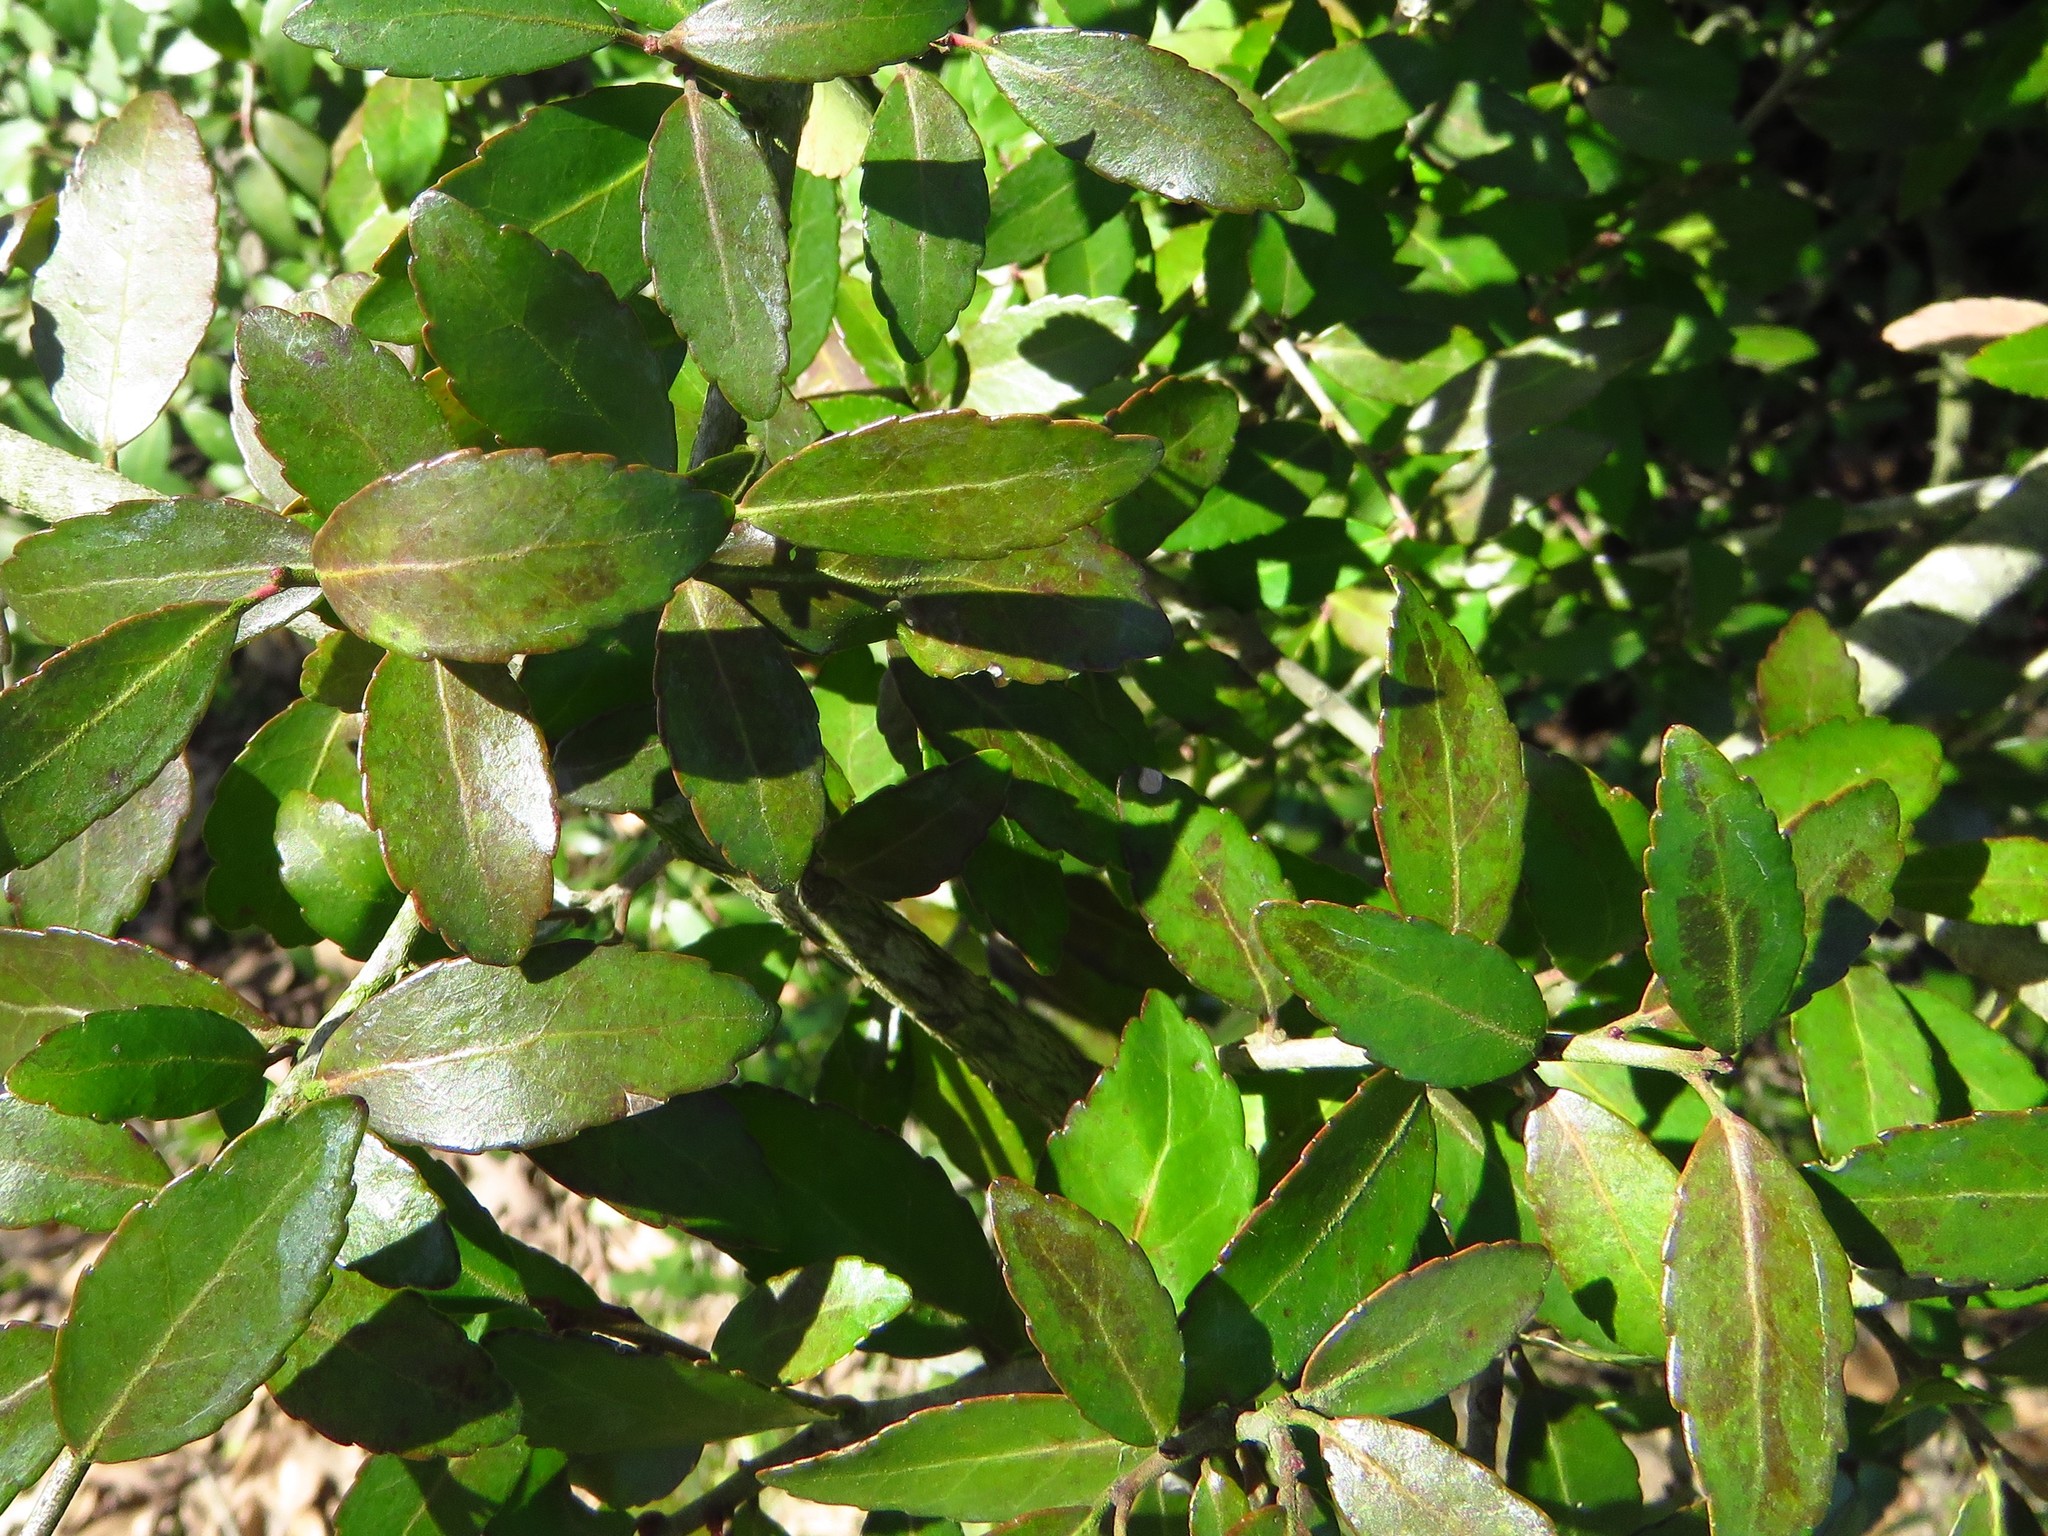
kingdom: Plantae
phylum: Tracheophyta
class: Magnoliopsida
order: Aquifoliales
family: Aquifoliaceae
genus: Ilex
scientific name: Ilex vomitoria
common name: Yaupon holly
